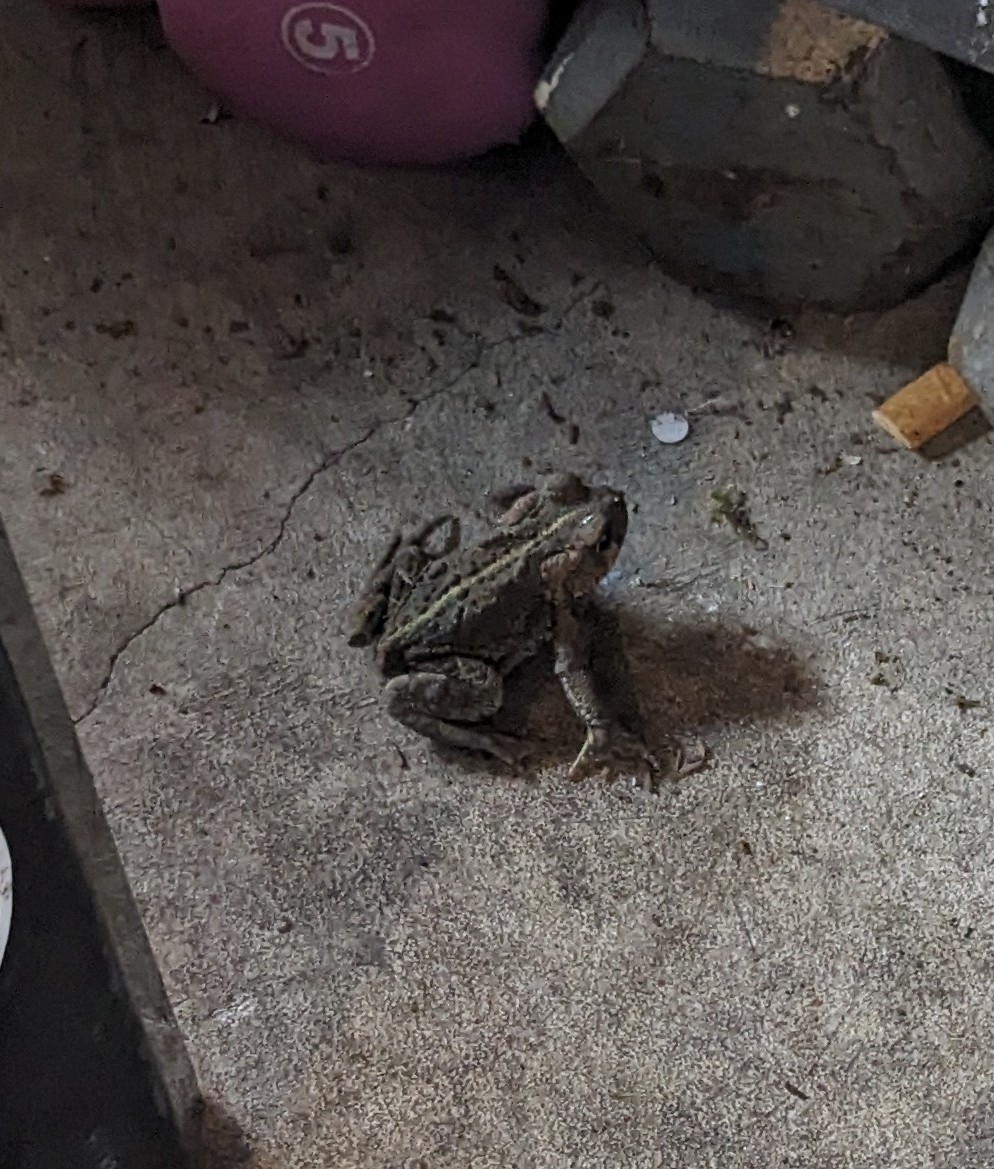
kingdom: Animalia
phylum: Chordata
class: Amphibia
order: Anura
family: Bufonidae
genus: Anaxyrus
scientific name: Anaxyrus boreas
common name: Western toad
